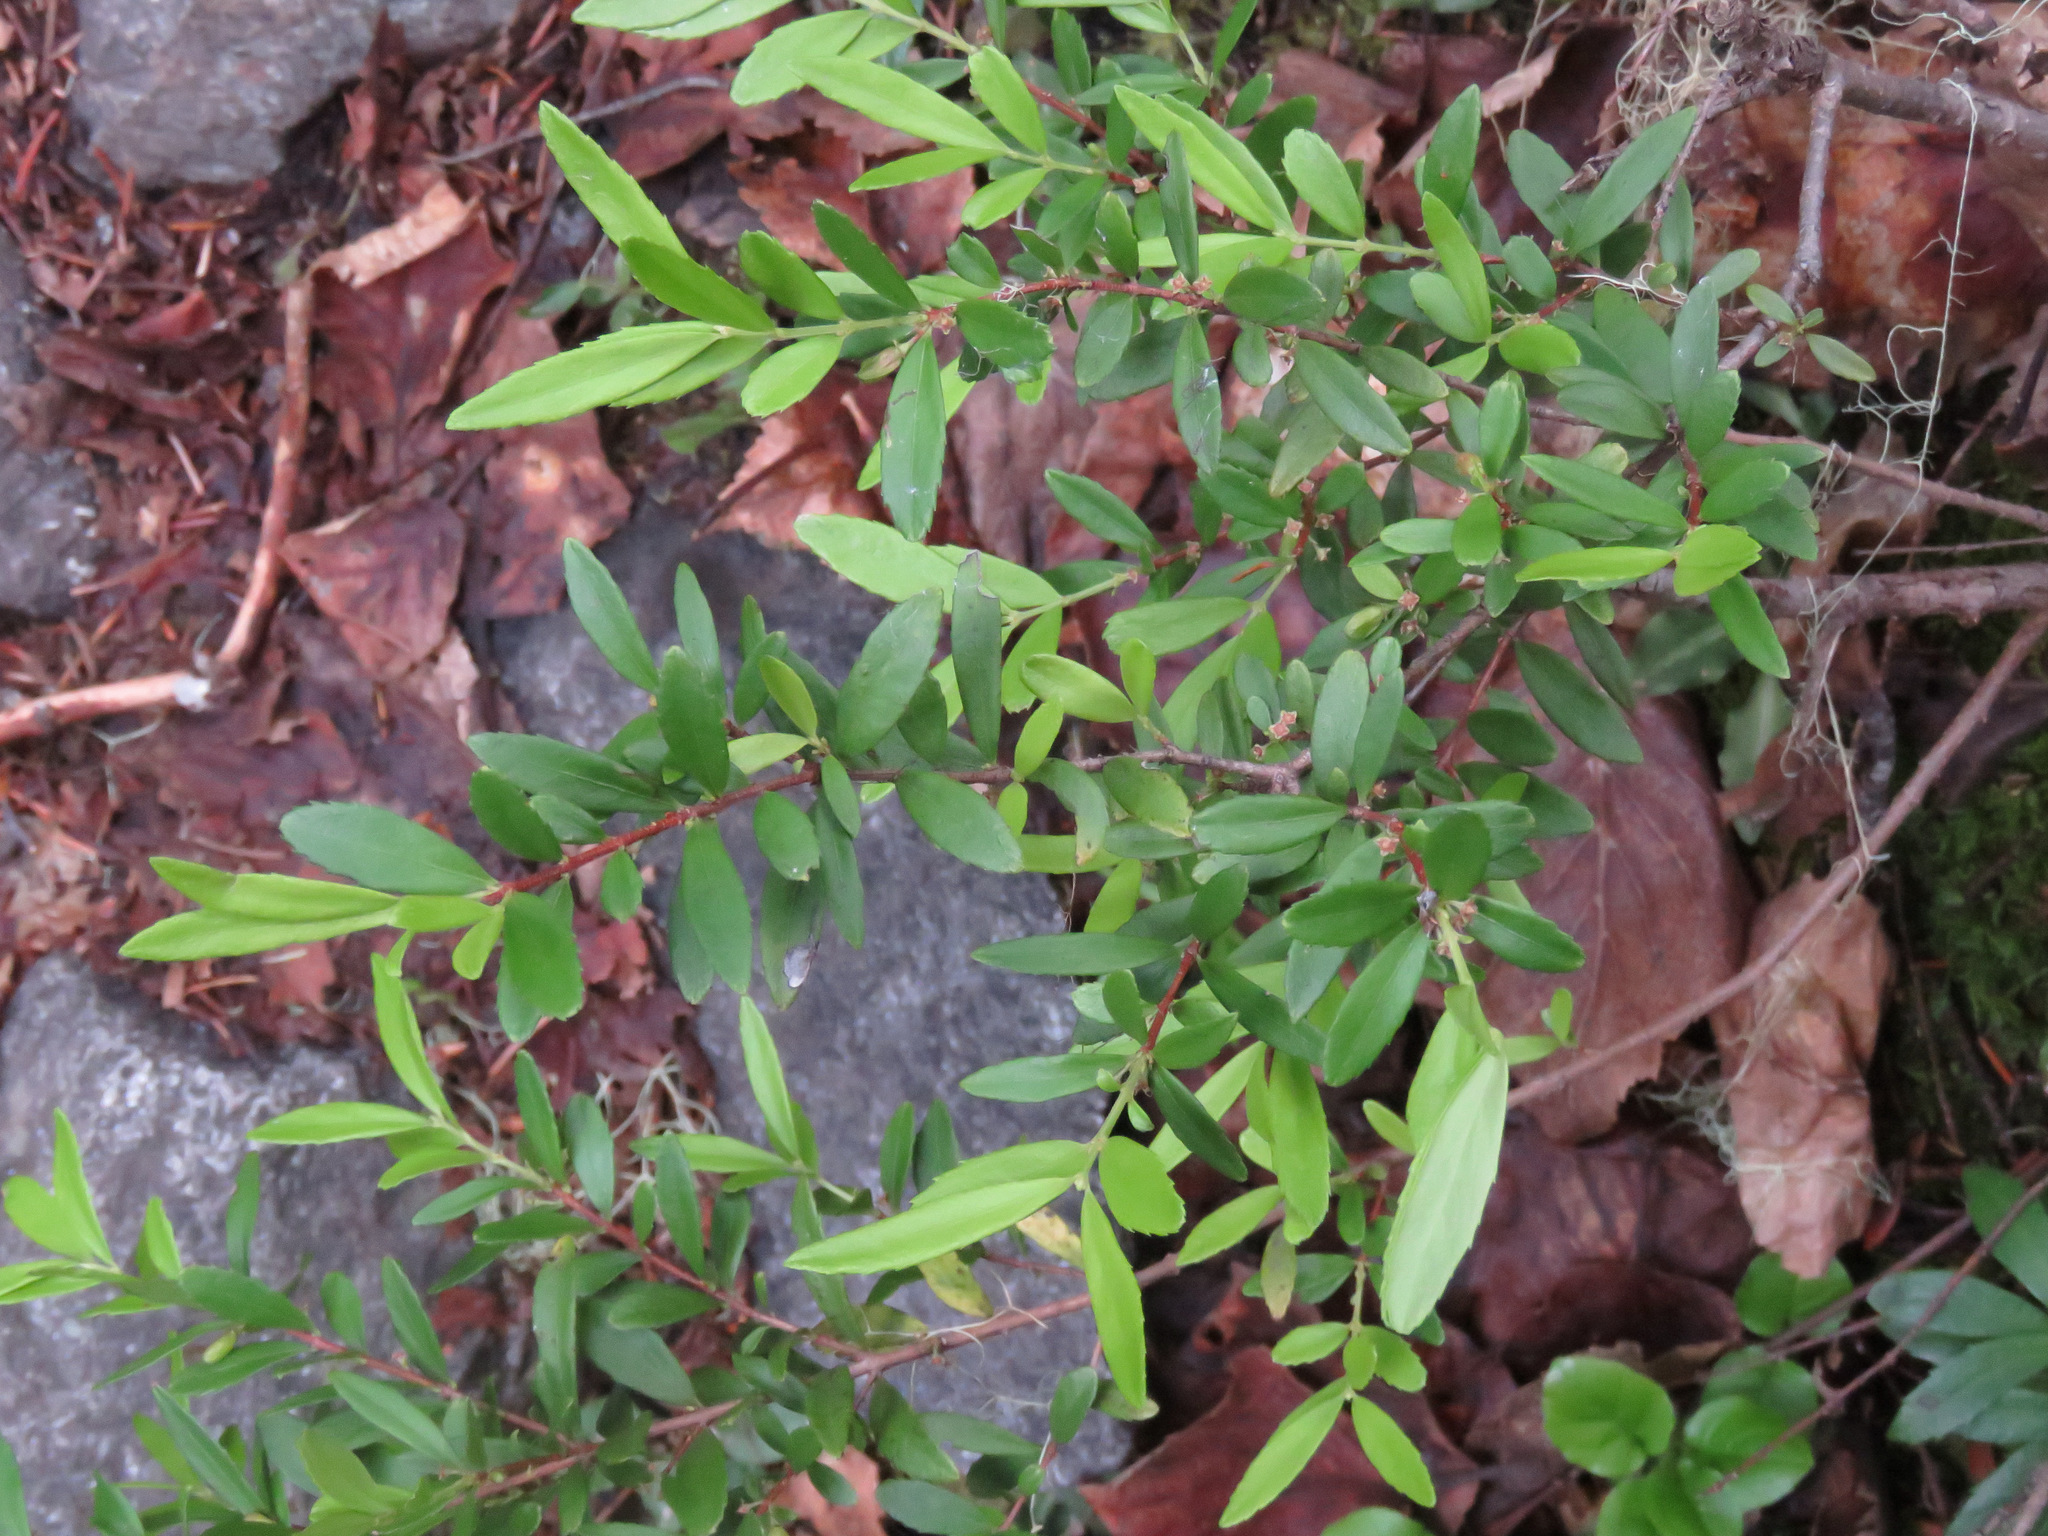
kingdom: Plantae
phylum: Tracheophyta
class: Magnoliopsida
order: Celastrales
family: Celastraceae
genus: Paxistima
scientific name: Paxistima myrsinites
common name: Mountain-lover
